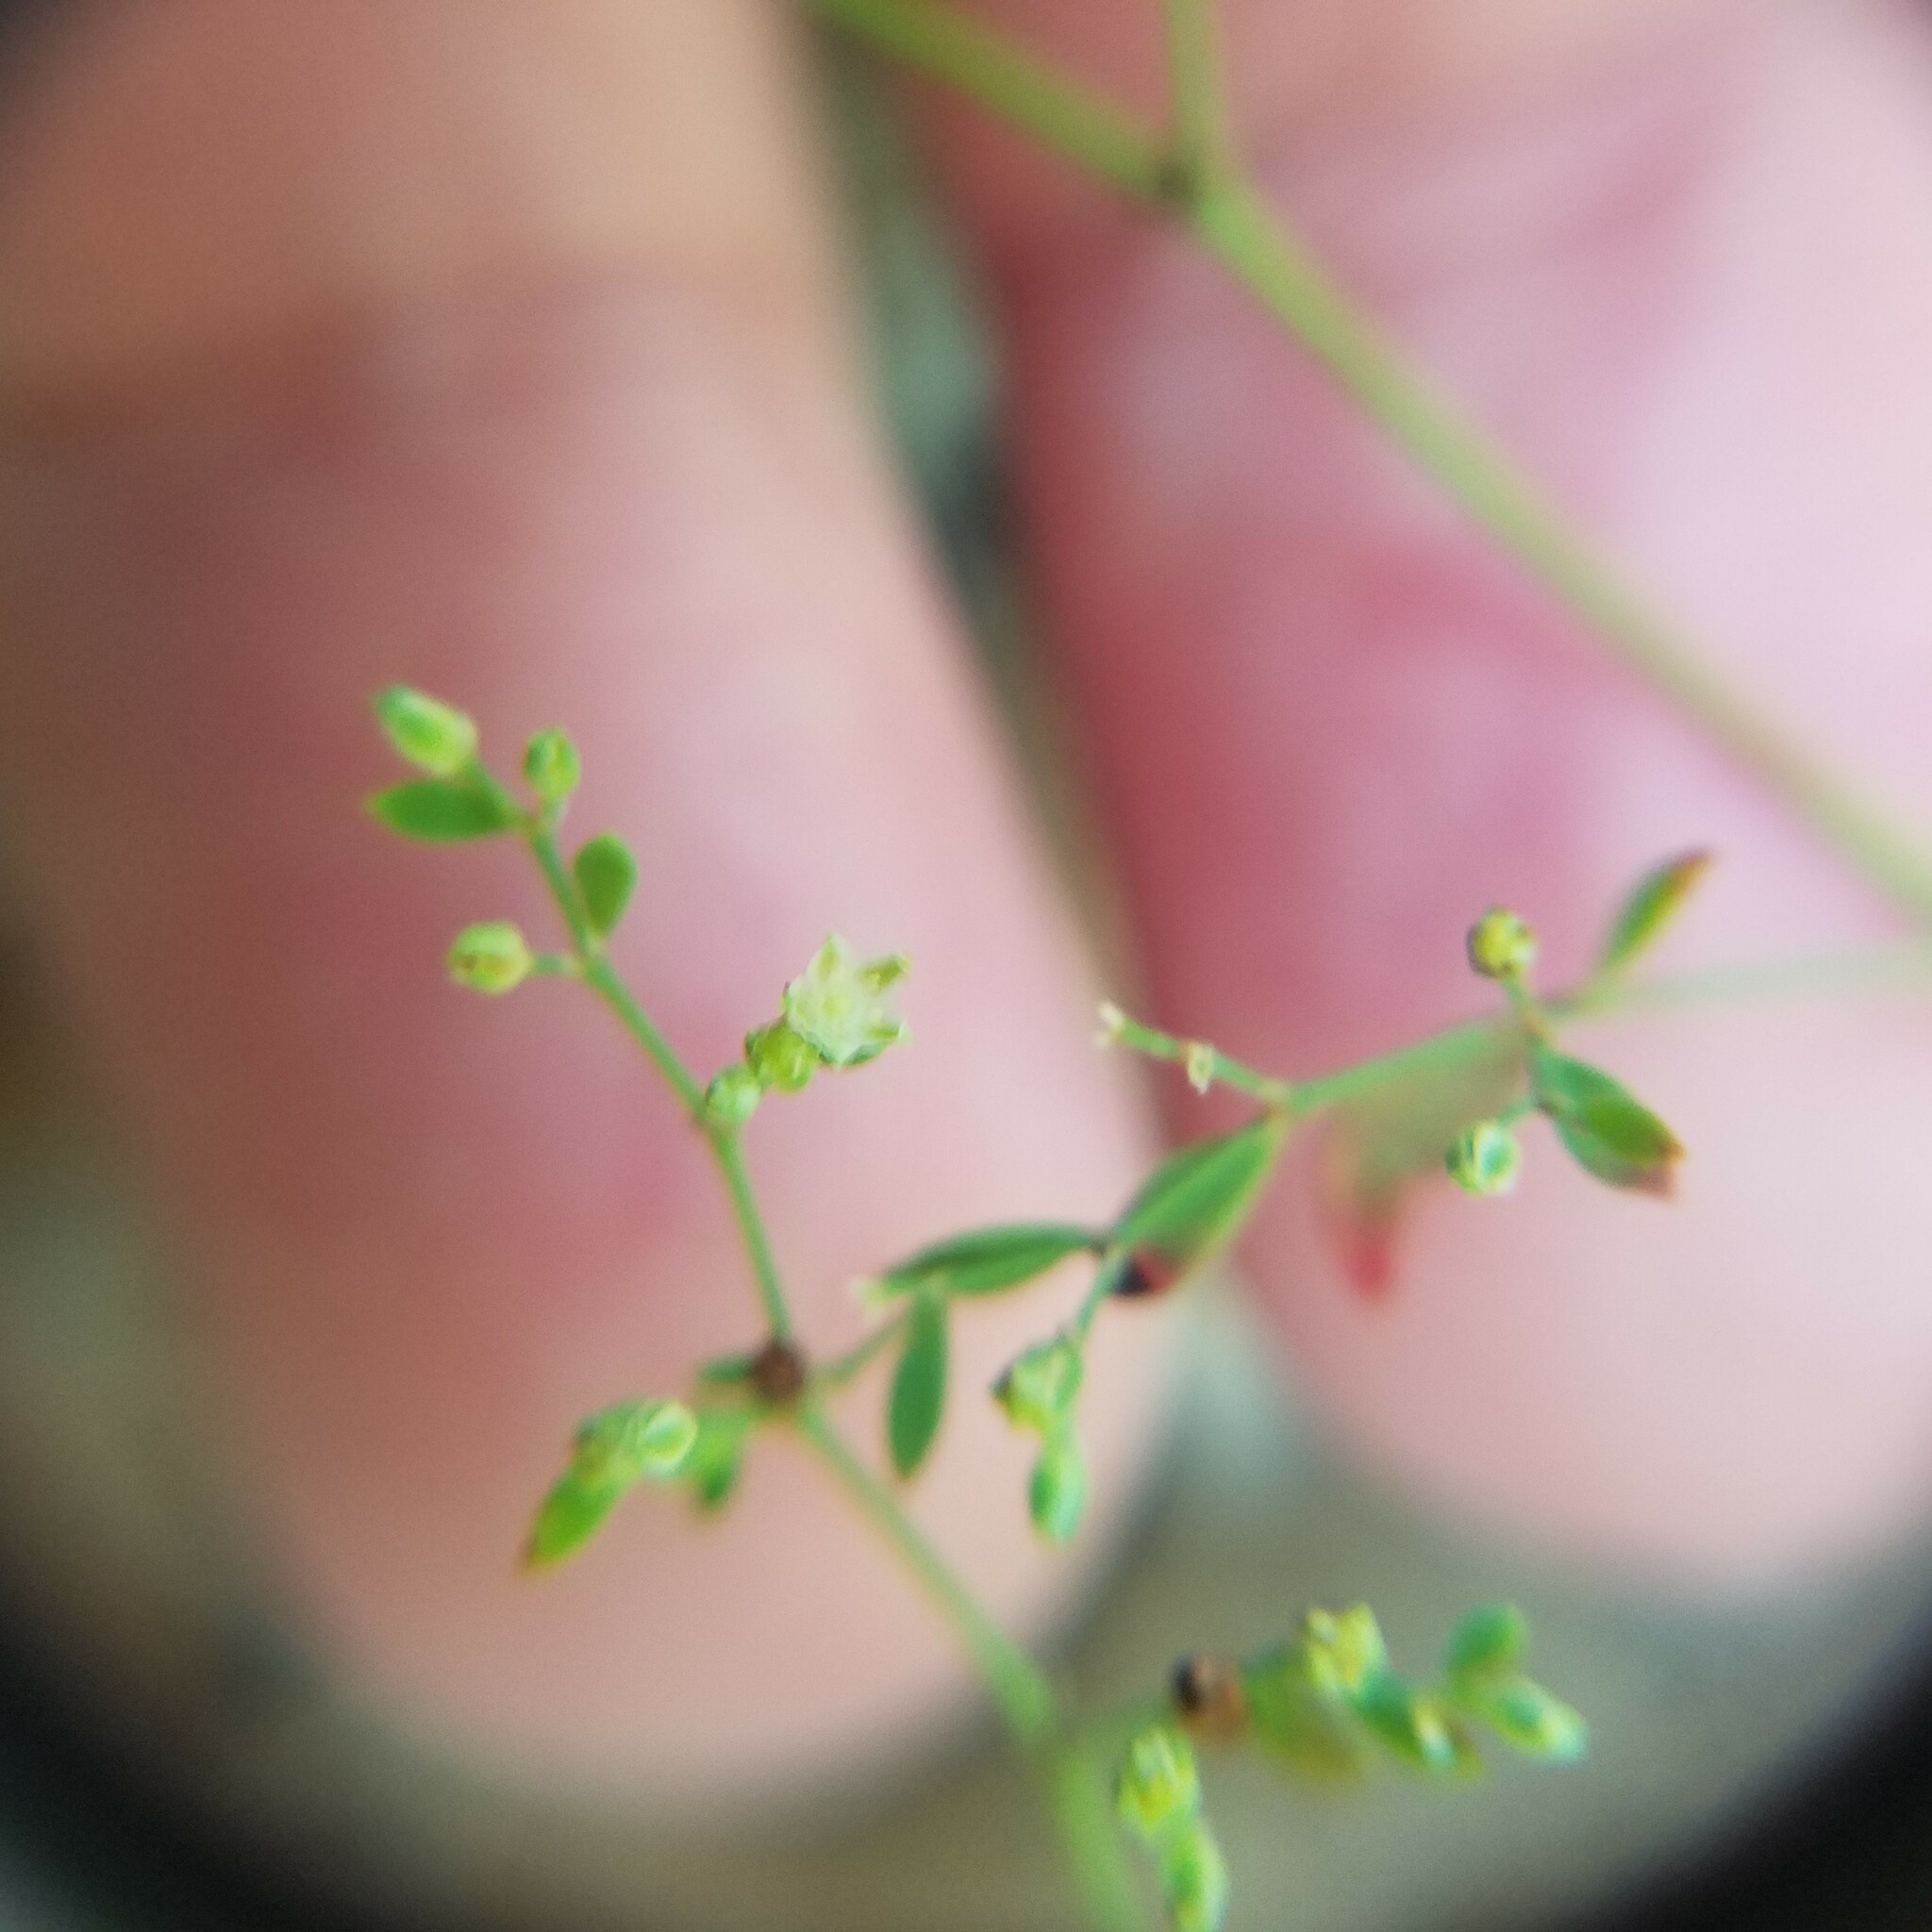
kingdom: Plantae
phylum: Tracheophyta
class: Magnoliopsida
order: Caryophyllales
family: Caryophyllaceae
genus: Paronychia
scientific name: Paronychia americana
